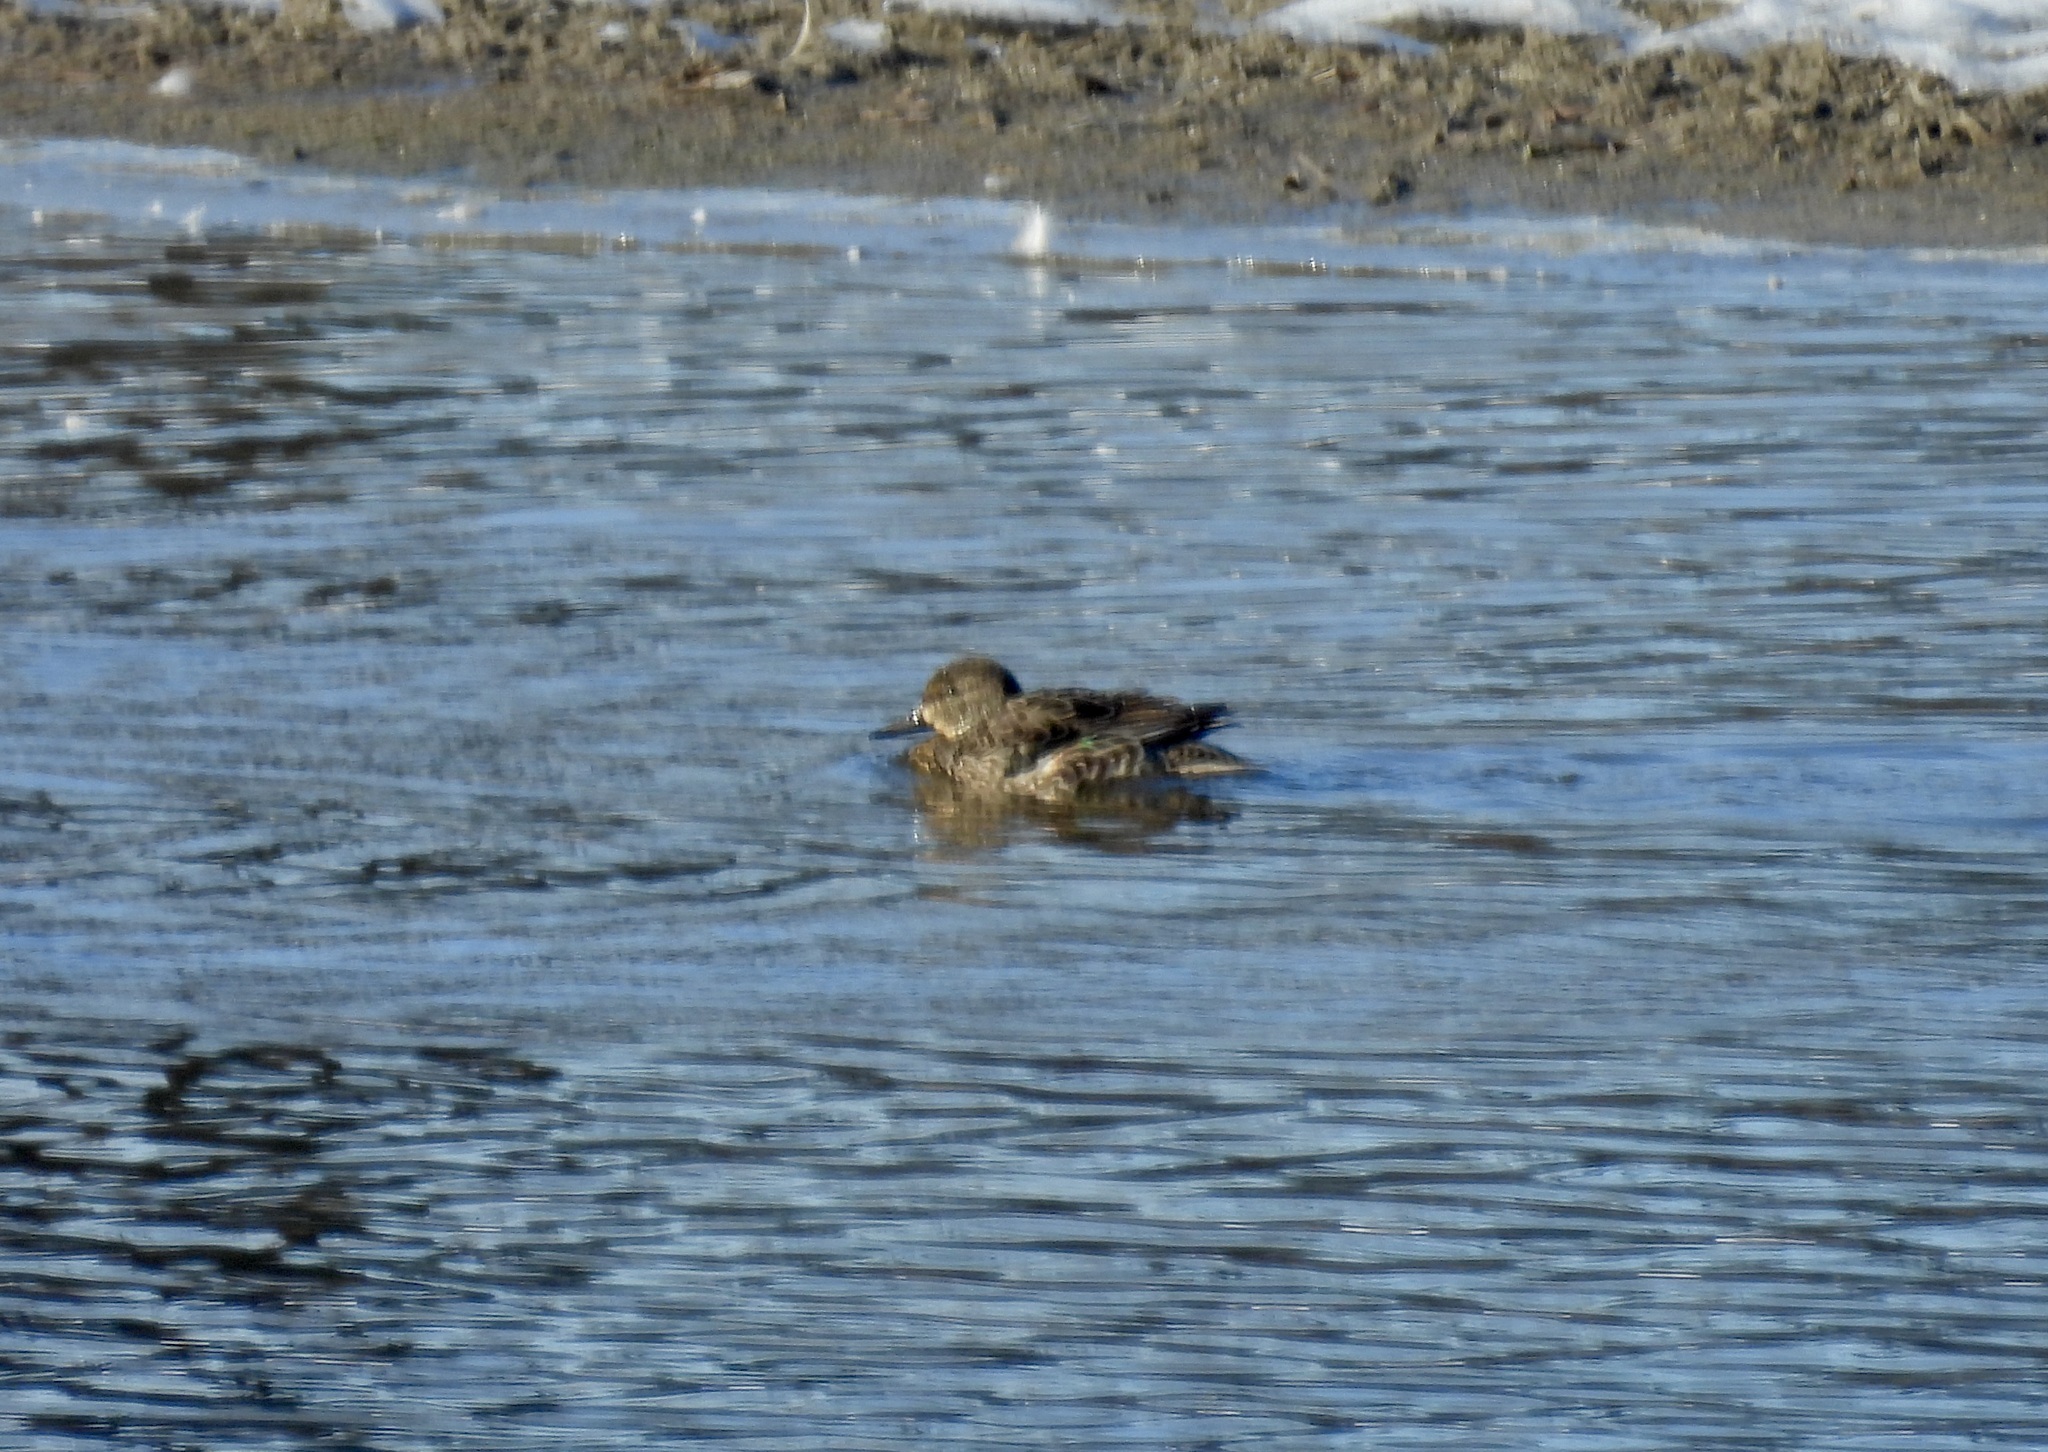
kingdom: Animalia
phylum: Chordata
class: Aves
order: Anseriformes
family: Anatidae
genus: Anas
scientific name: Anas crecca
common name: Eurasian teal
